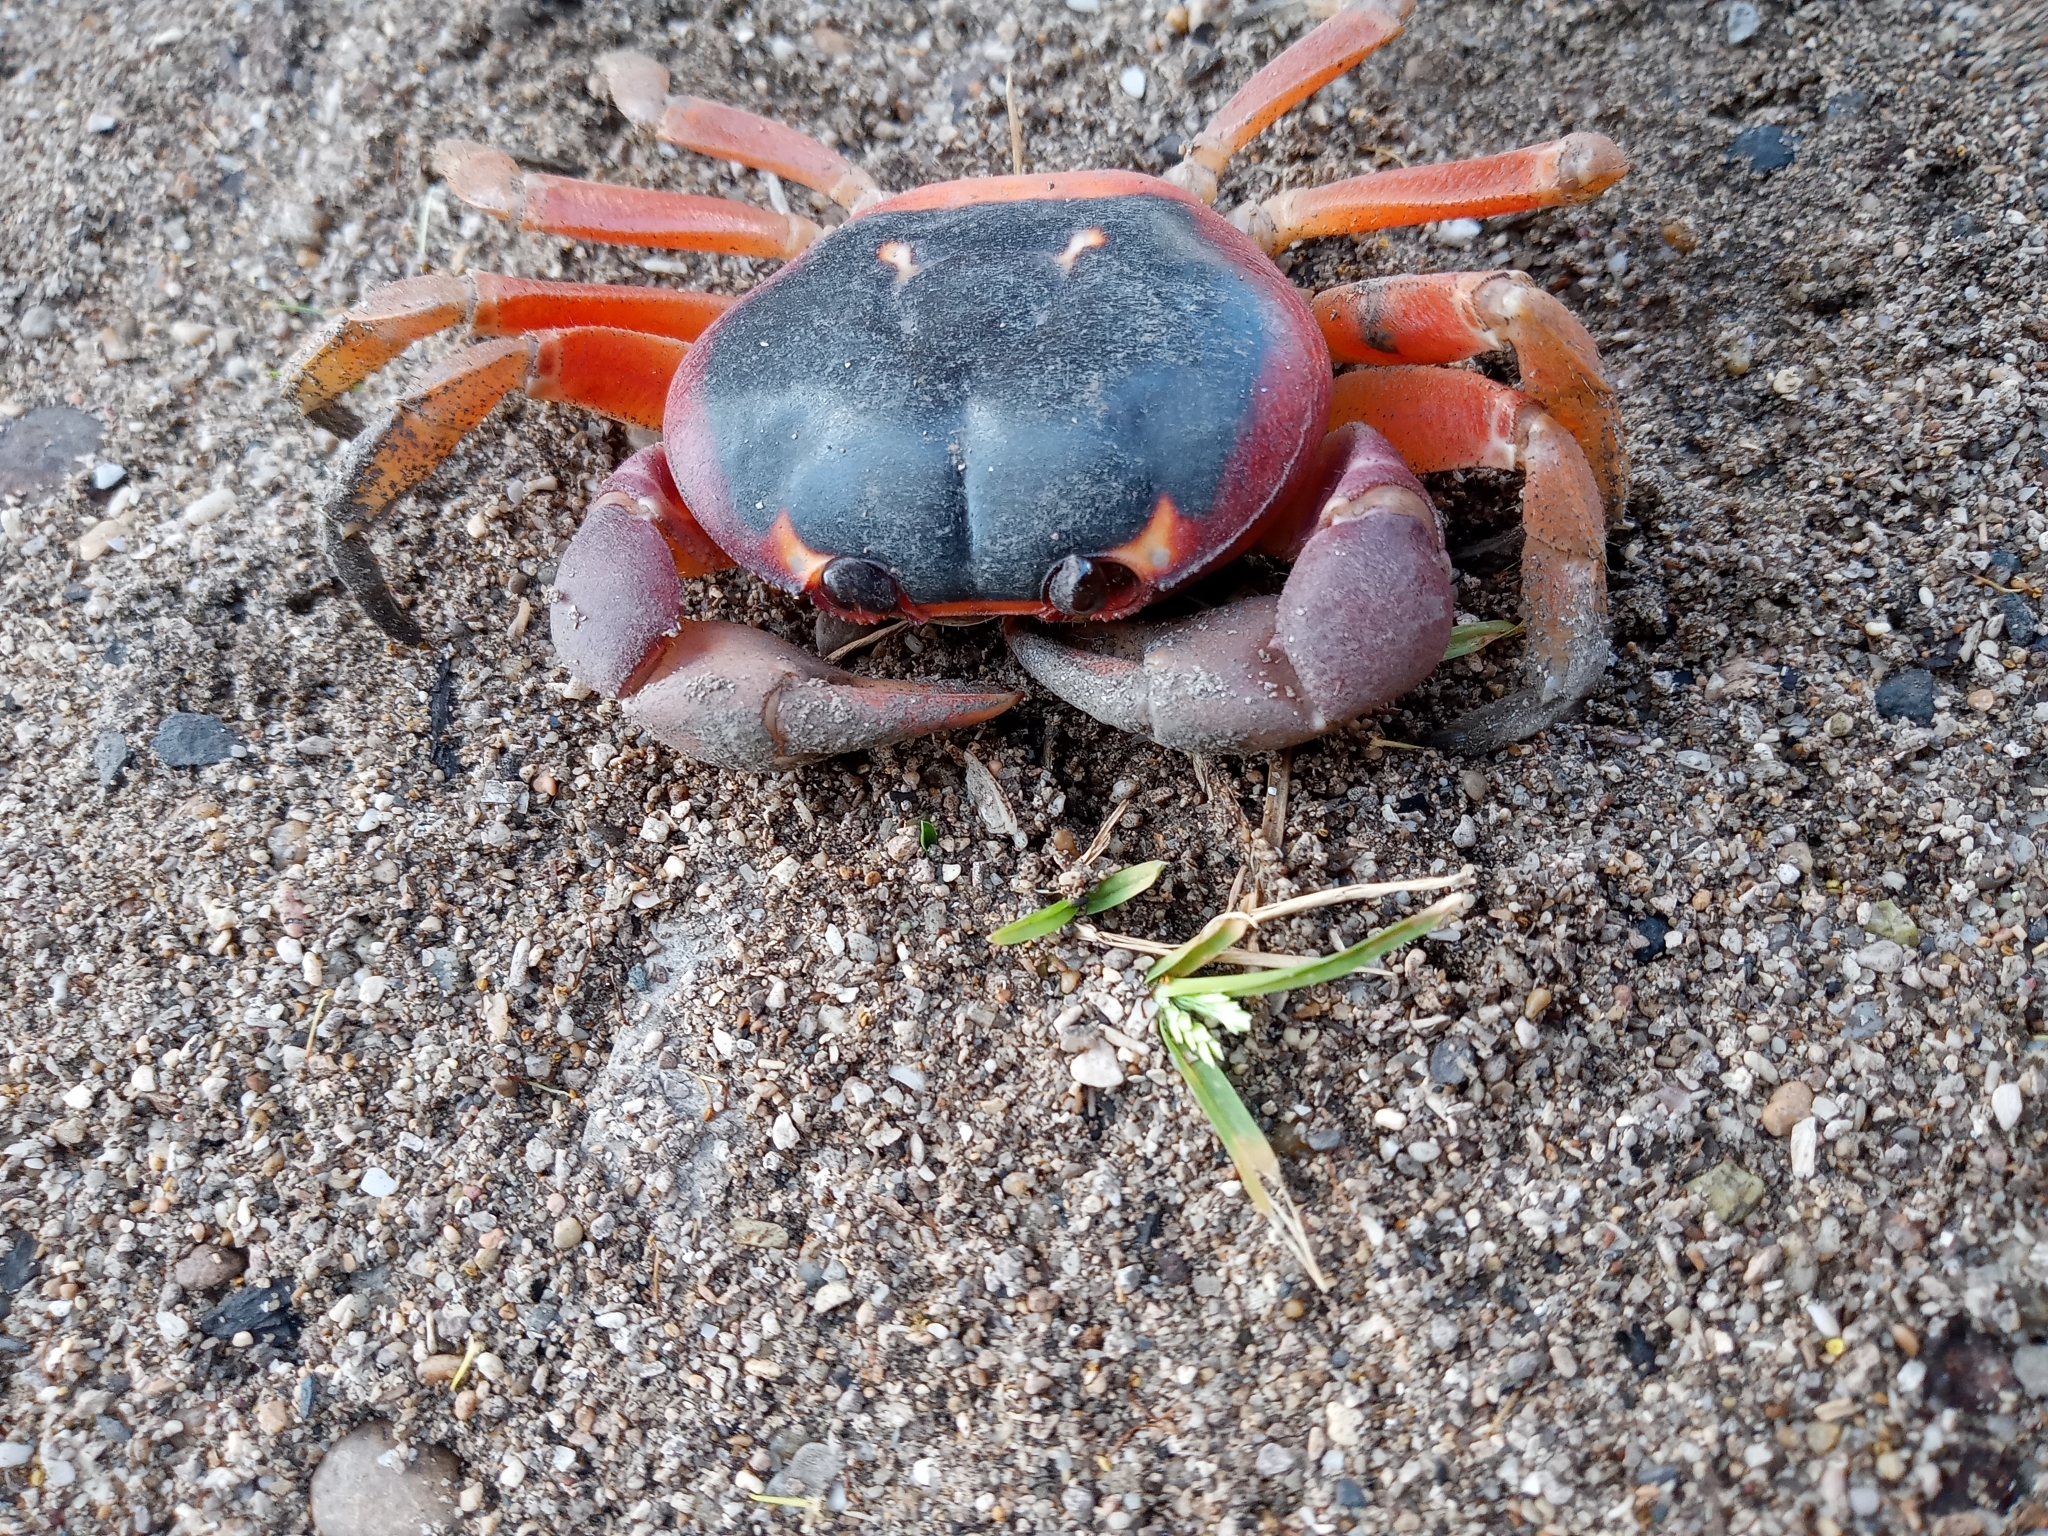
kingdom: Animalia
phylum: Arthropoda
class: Malacostraca
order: Decapoda
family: Gecarcinidae
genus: Gecarcinus
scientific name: Gecarcinus lateralis
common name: Bermuda land crab
